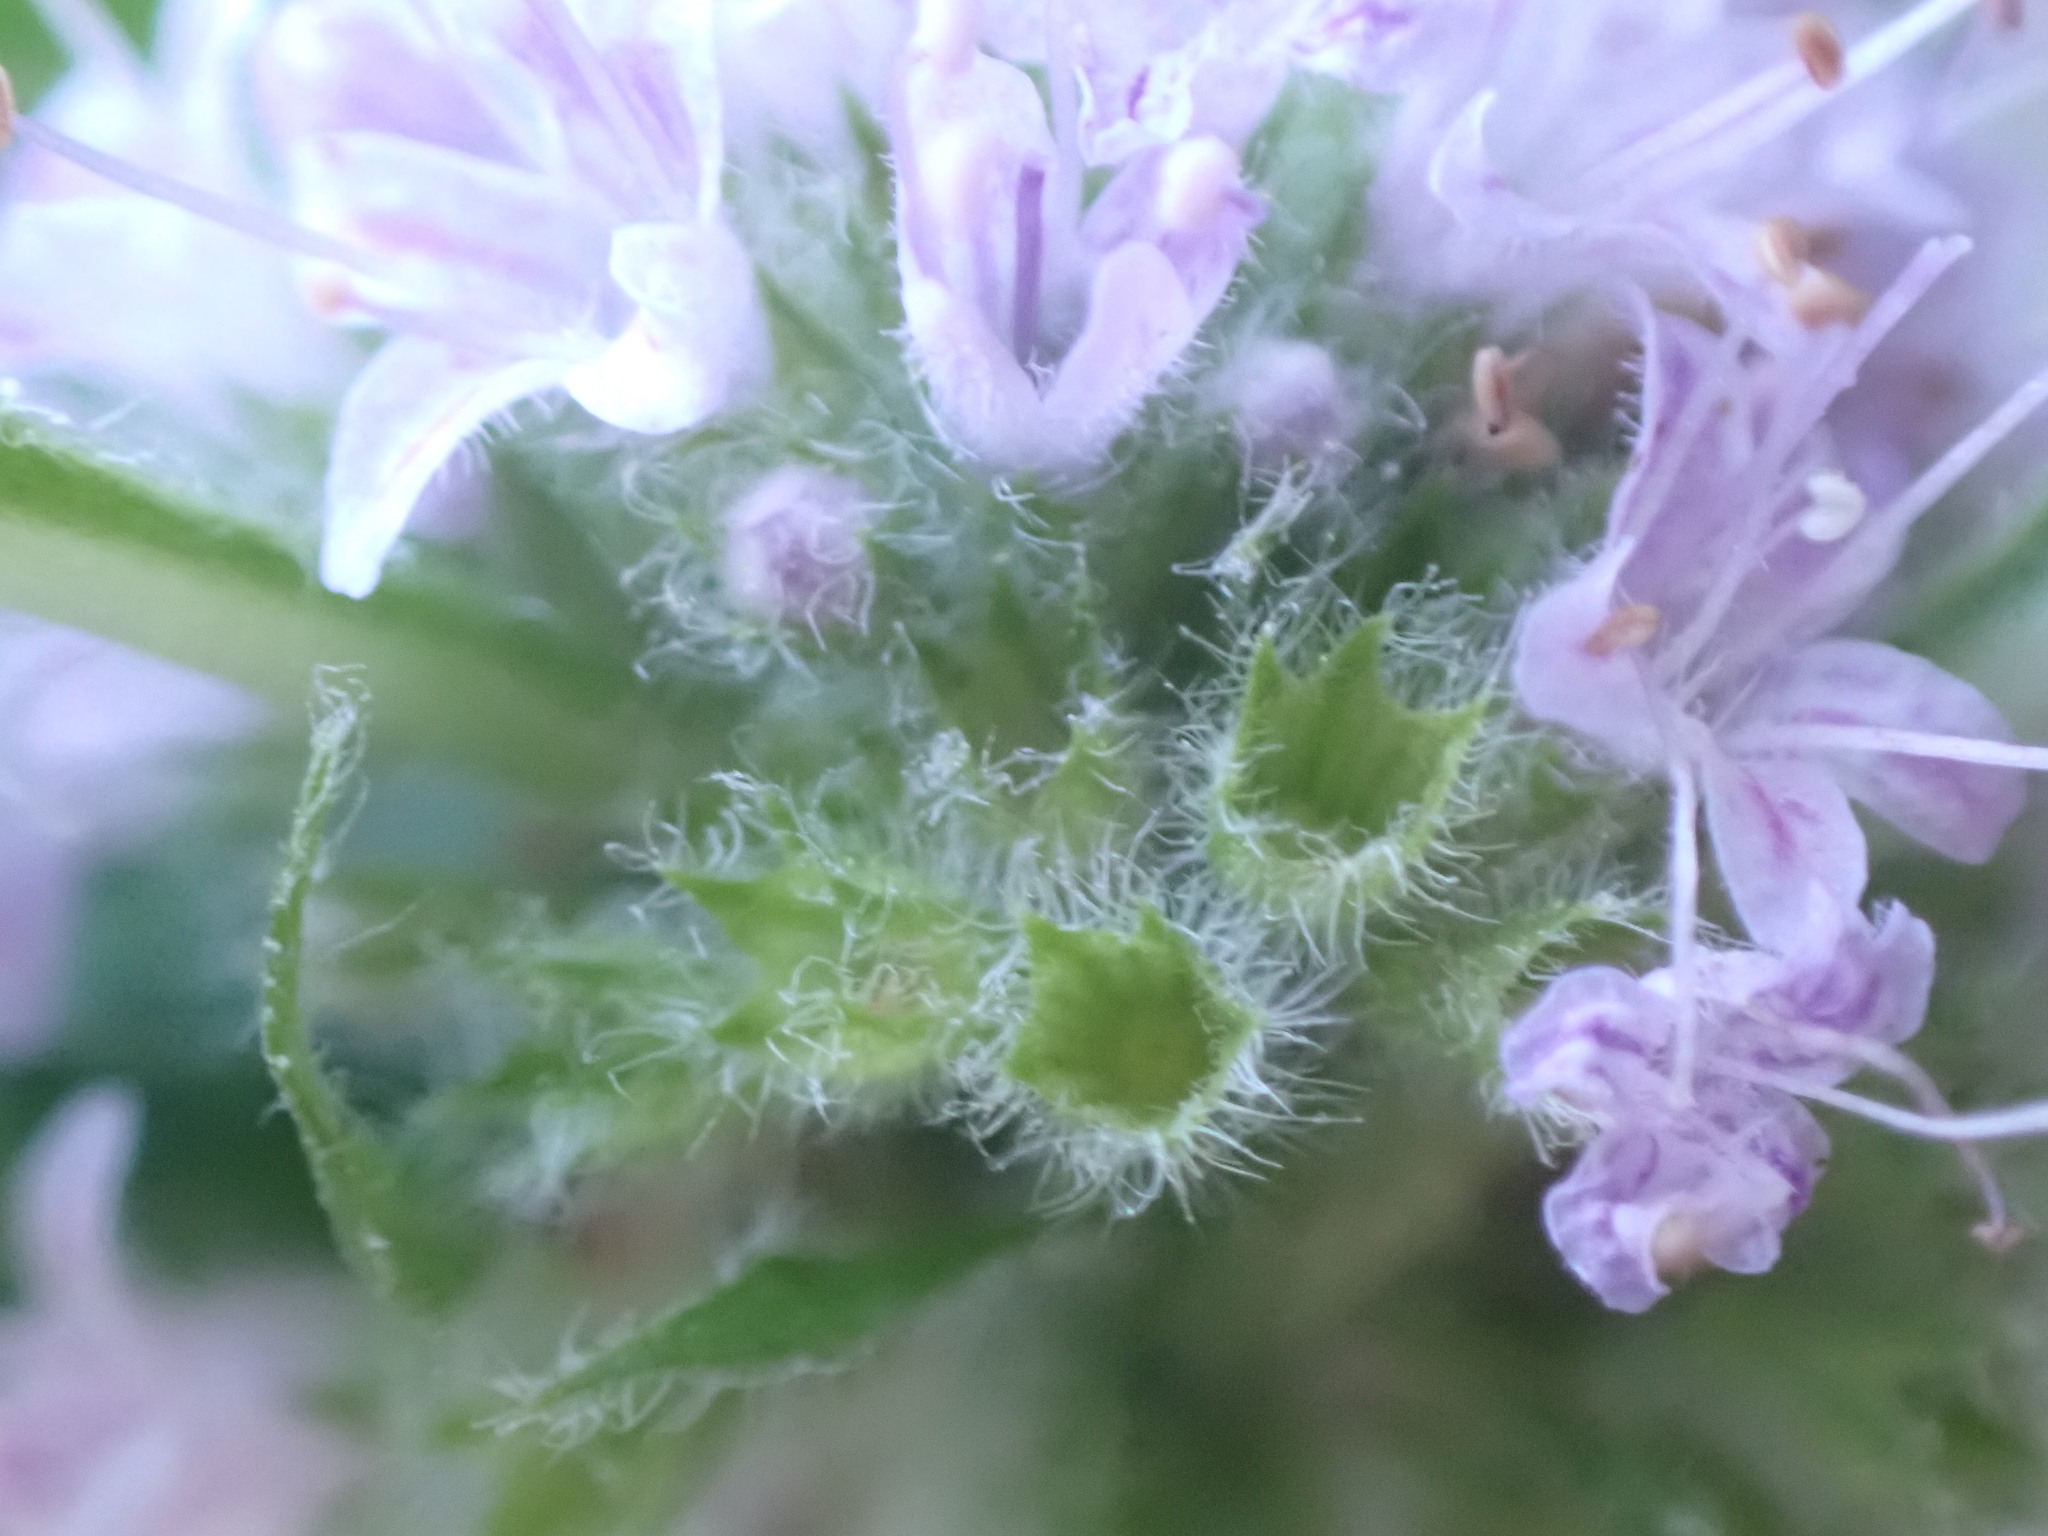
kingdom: Plantae
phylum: Tracheophyta
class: Magnoliopsida
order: Lamiales
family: Lamiaceae
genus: Mentha
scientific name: Mentha canadensis
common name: American corn mint
